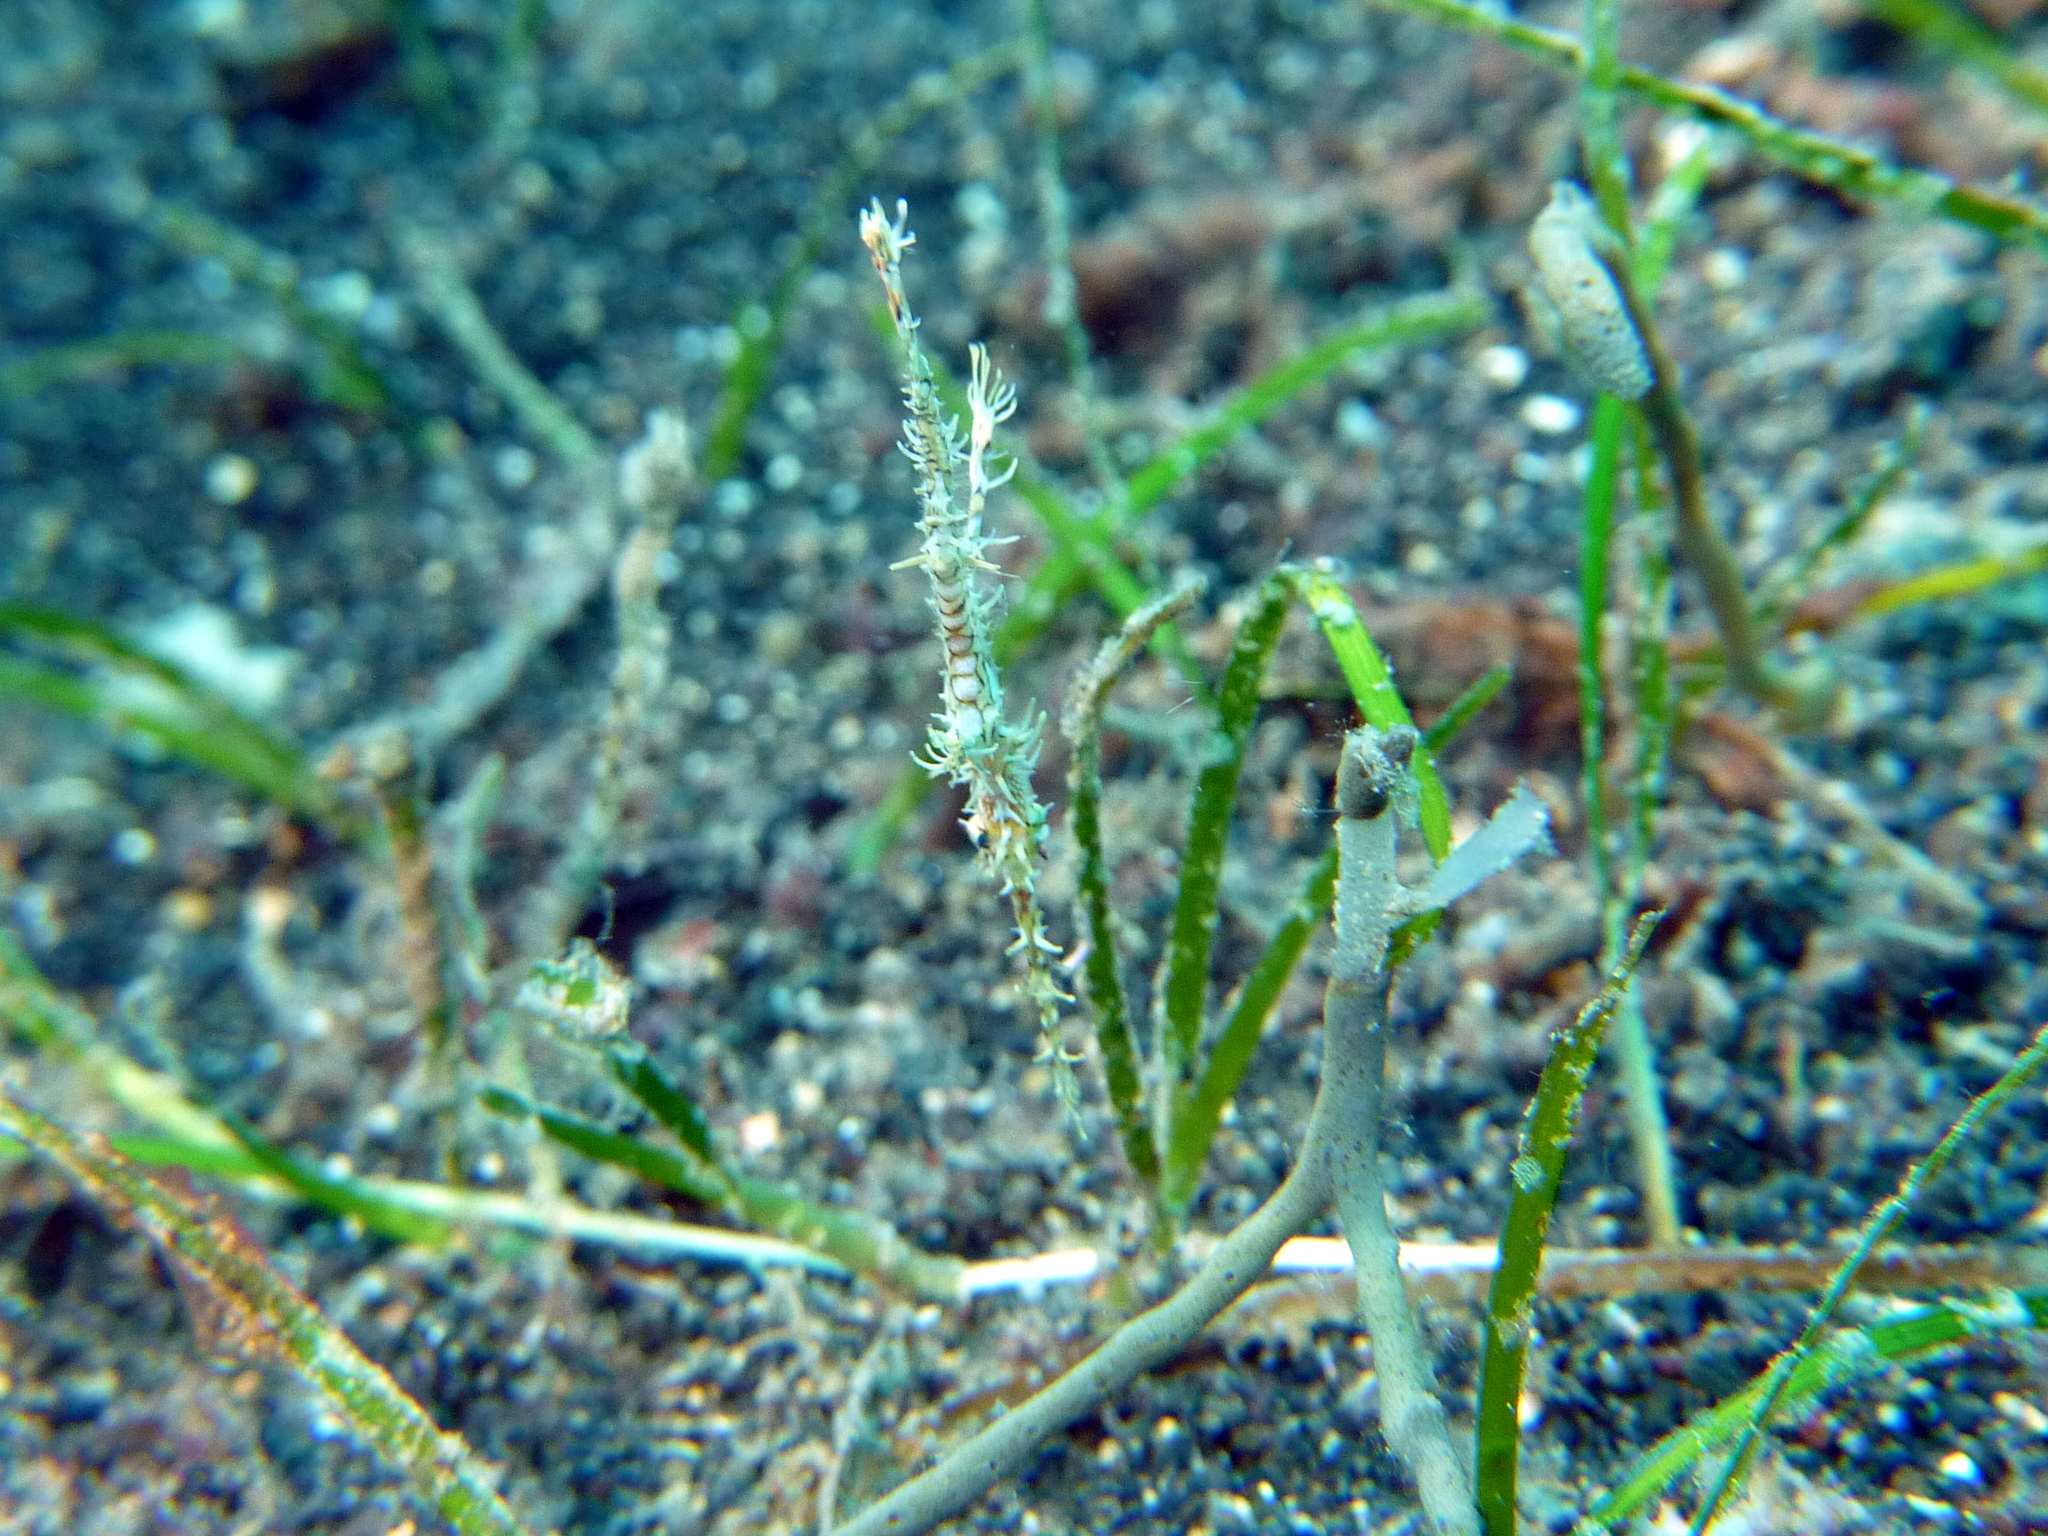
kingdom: Animalia
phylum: Chordata
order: Syngnathiformes
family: Solenostomidae
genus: Solenostomus
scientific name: Solenostomus paradoxus
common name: Ghost pipefish
